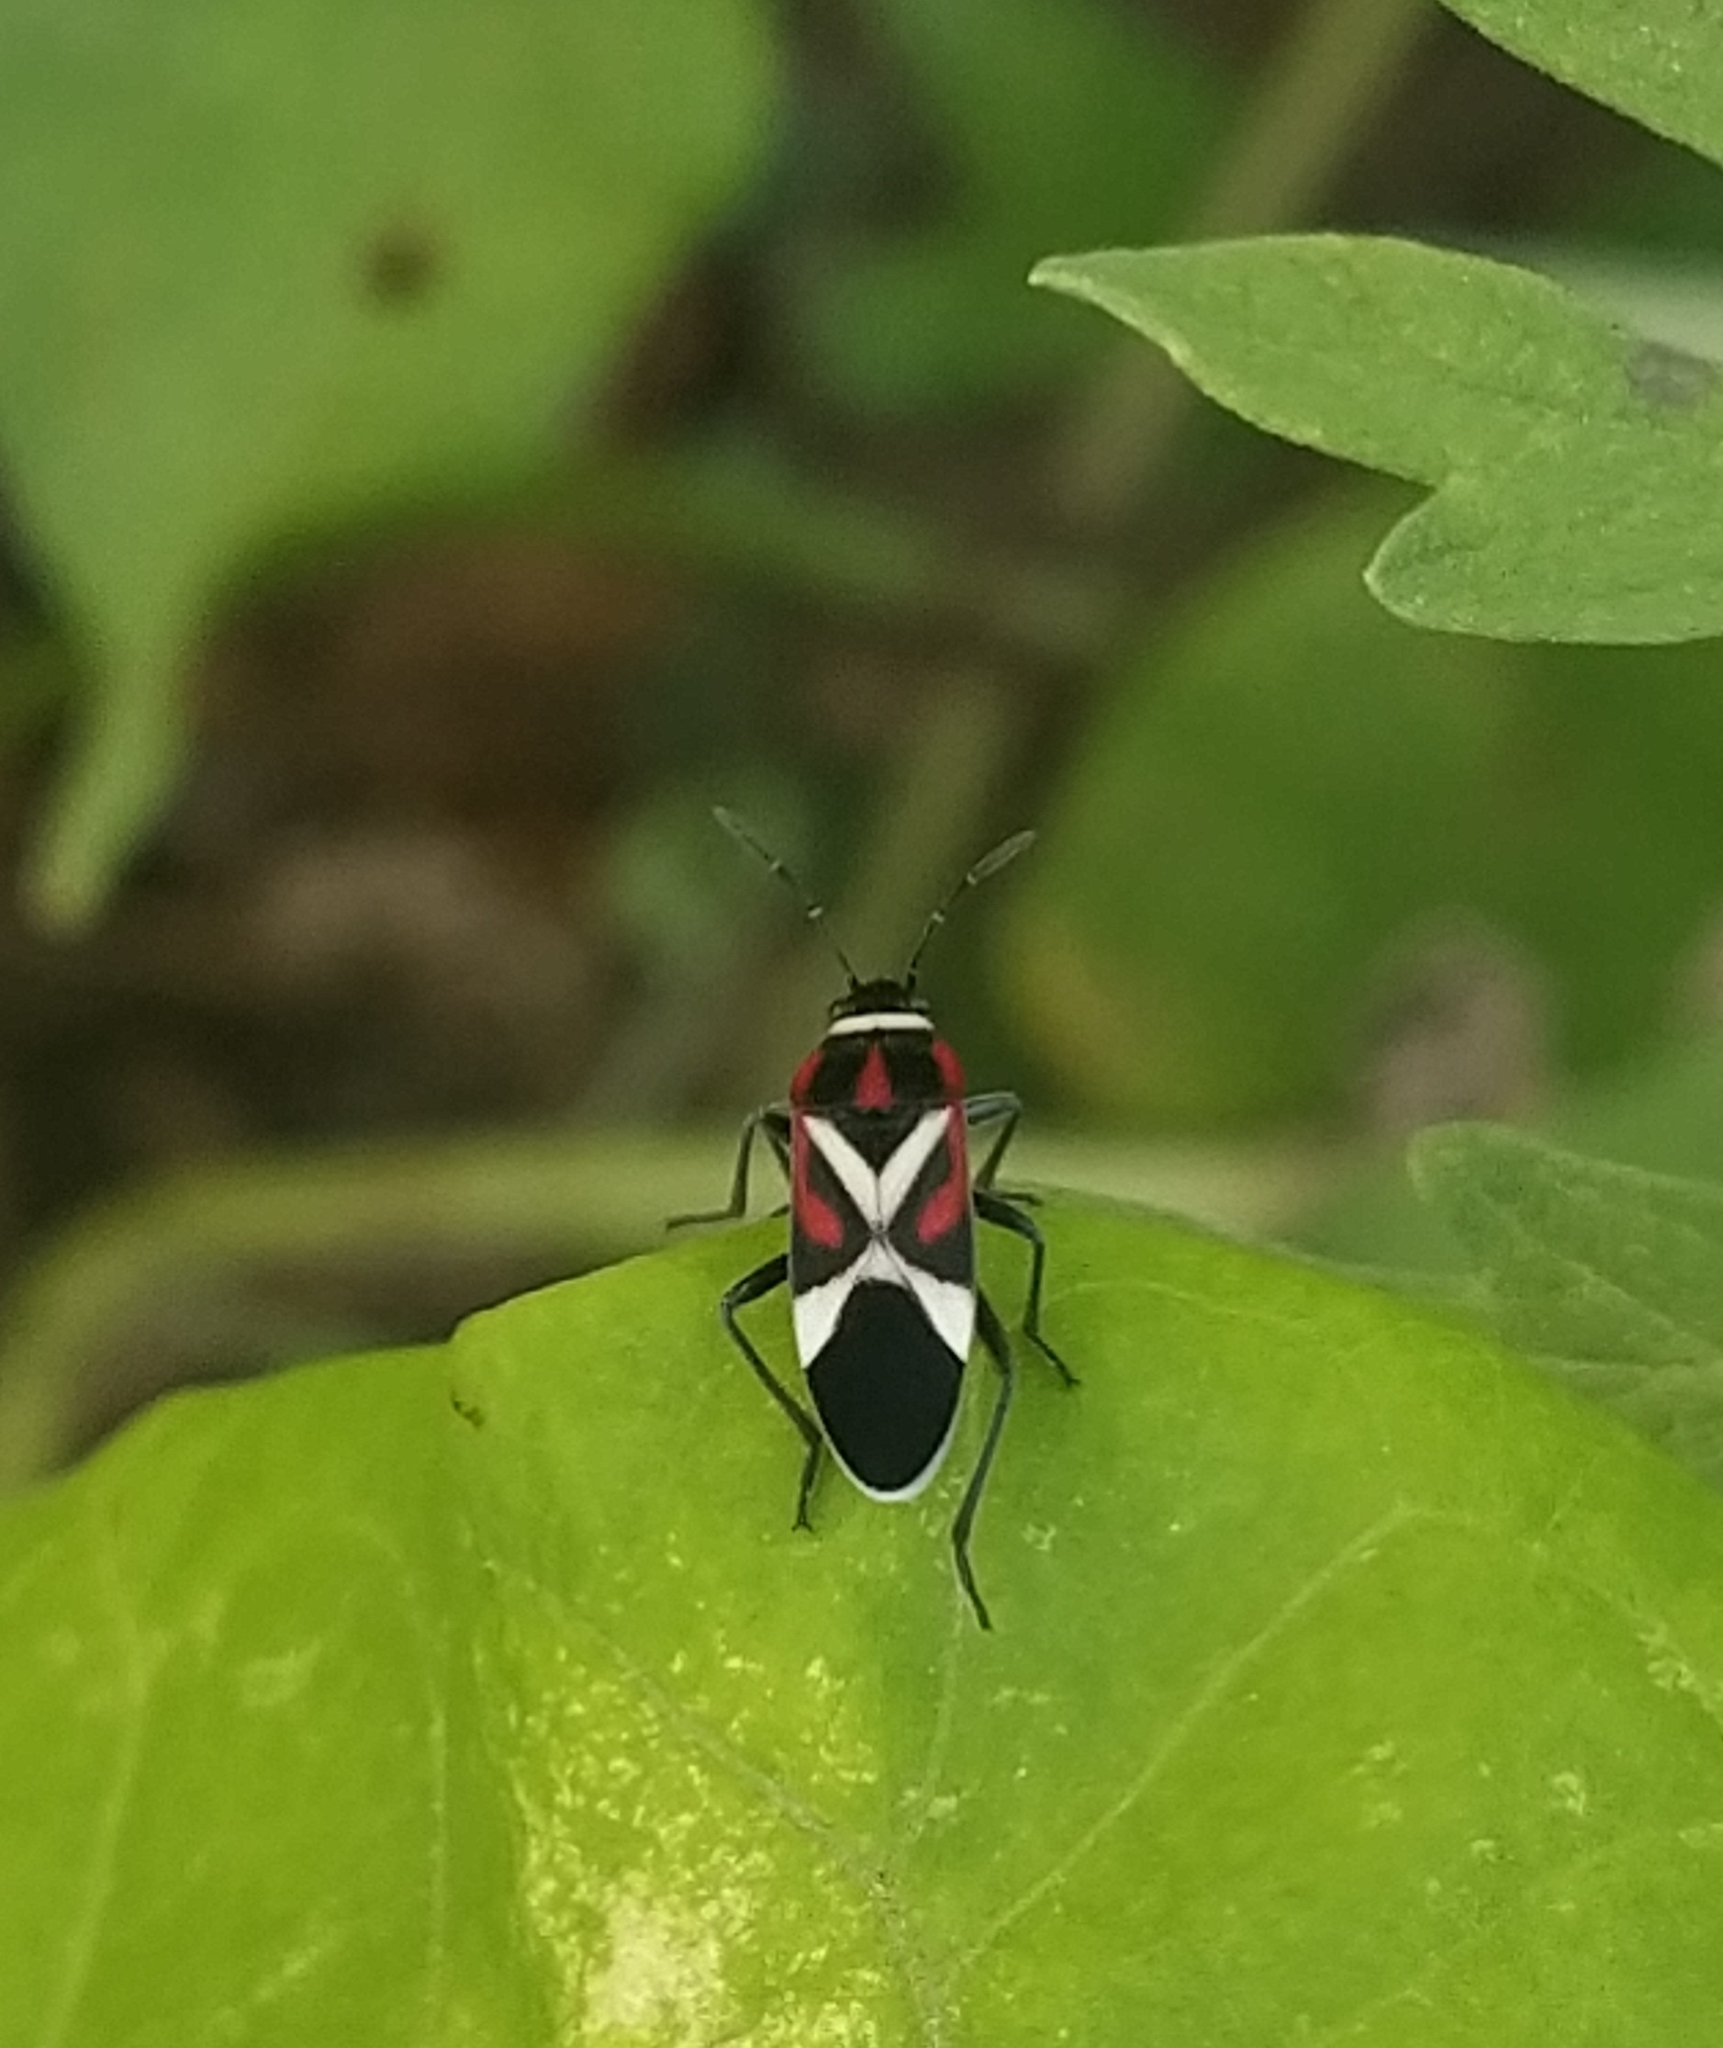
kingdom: Animalia
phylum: Arthropoda
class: Insecta
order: Hemiptera
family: Lygaeidae
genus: Craspeduchus
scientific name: Craspeduchus matudai
